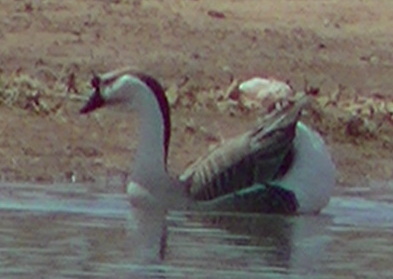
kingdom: Animalia
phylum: Chordata
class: Aves
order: Anseriformes
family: Anatidae
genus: Anser
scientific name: Anser cygnoides
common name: Swan goose
